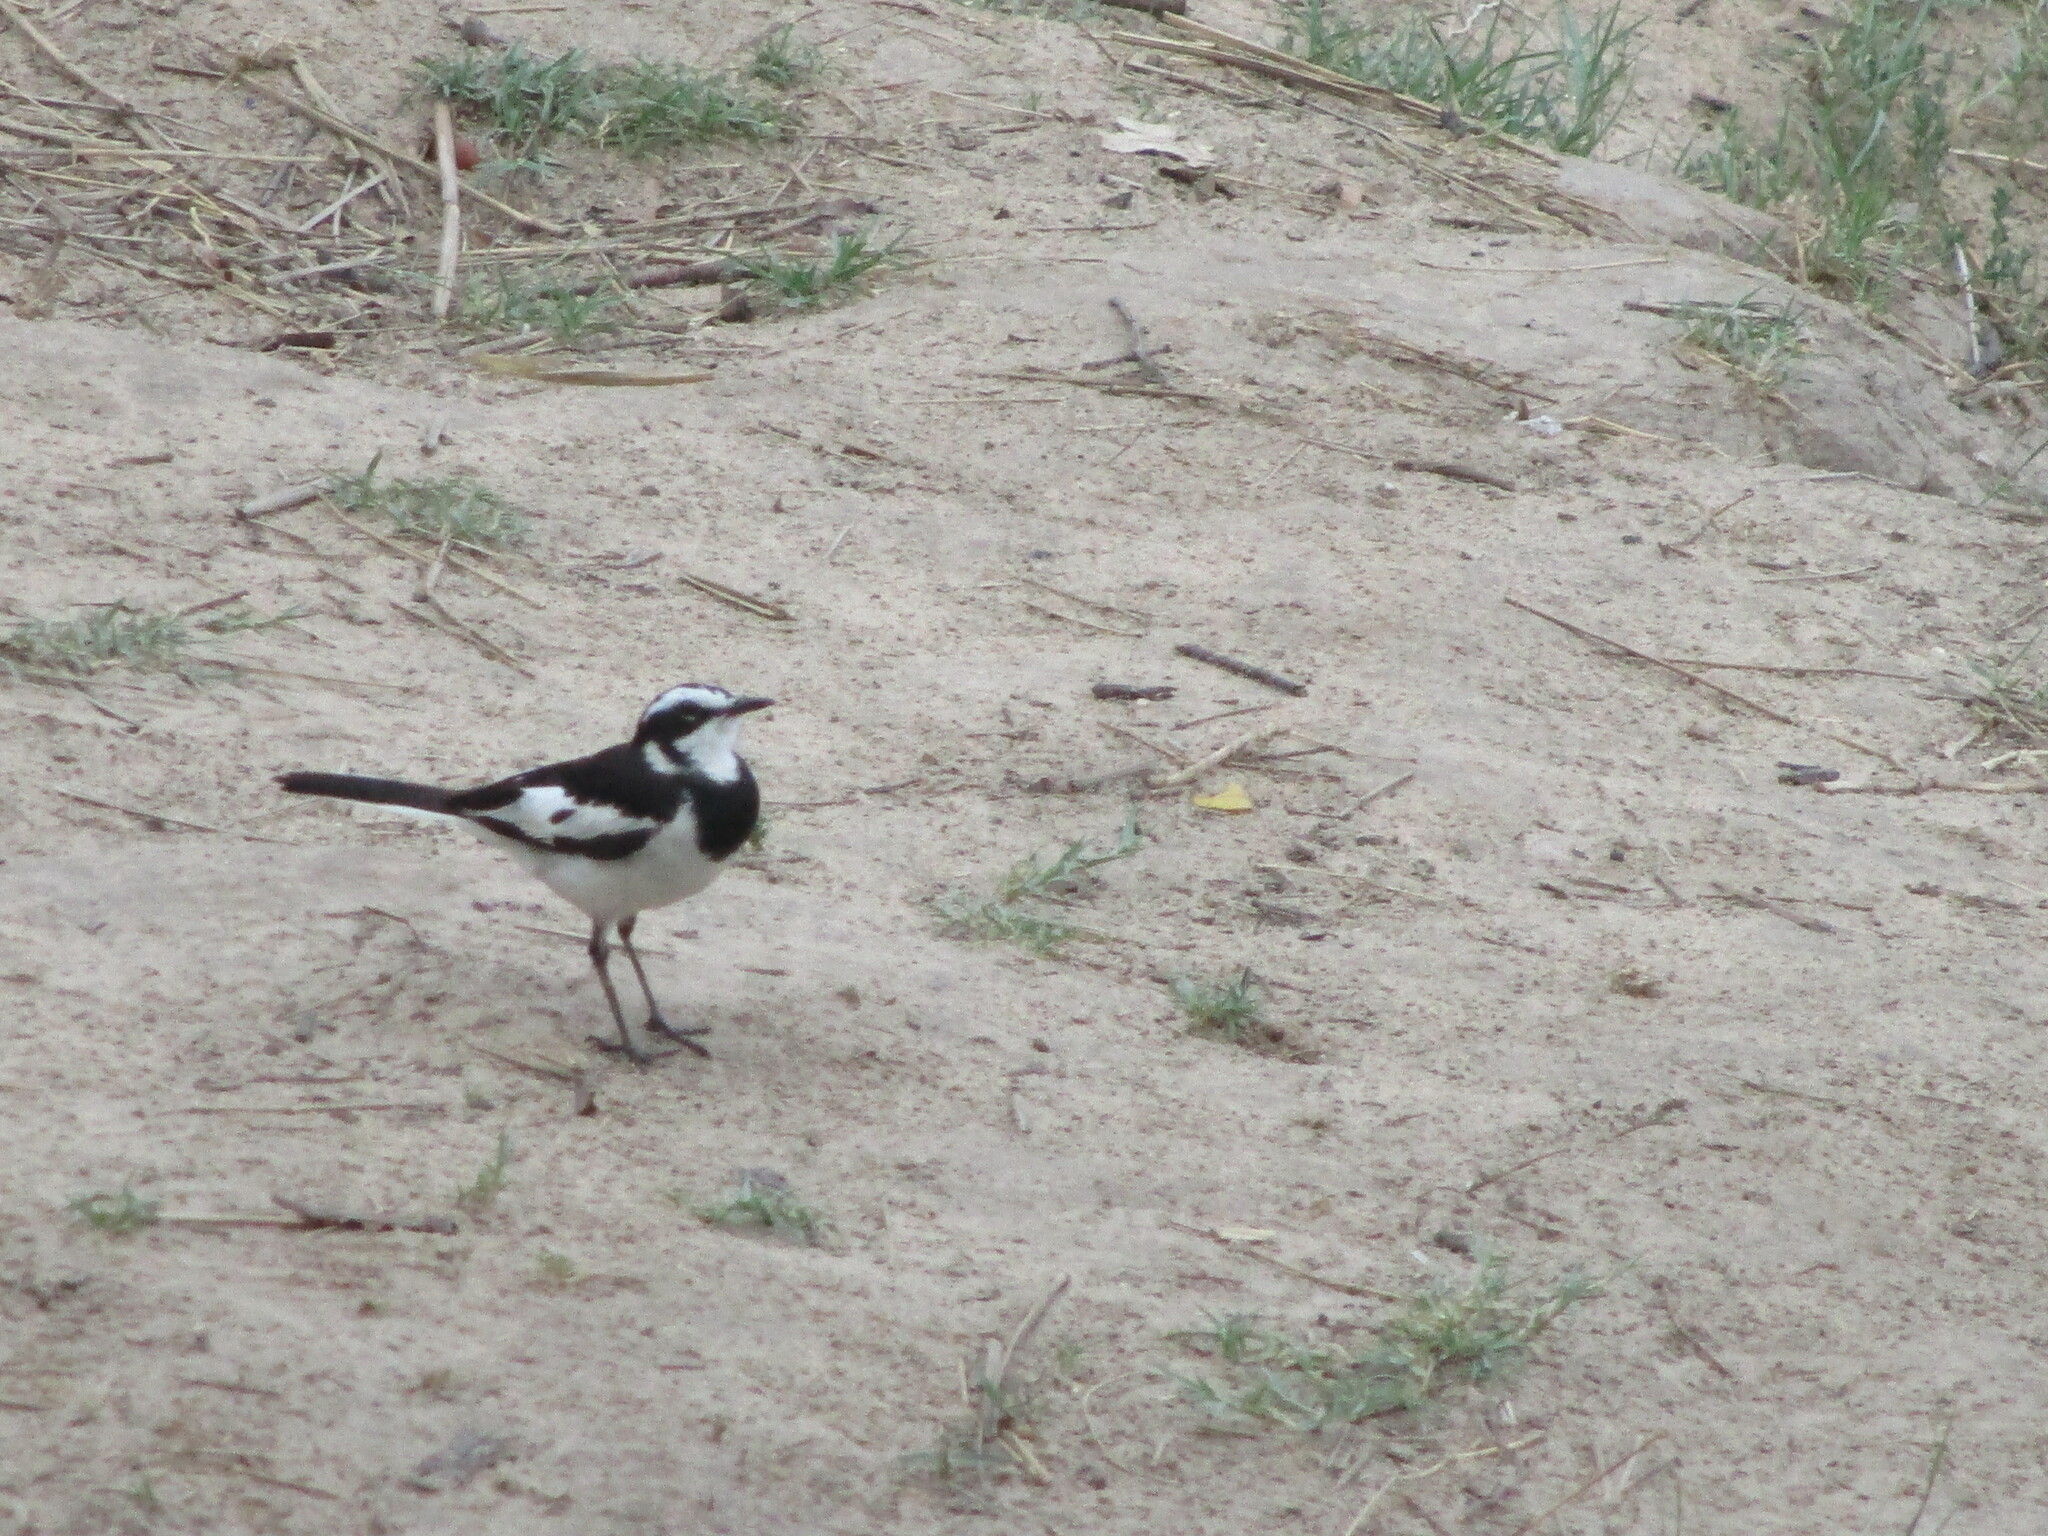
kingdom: Animalia
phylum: Chordata
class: Aves
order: Passeriformes
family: Motacillidae
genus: Motacilla
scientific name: Motacilla aguimp
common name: African pied wagtail
